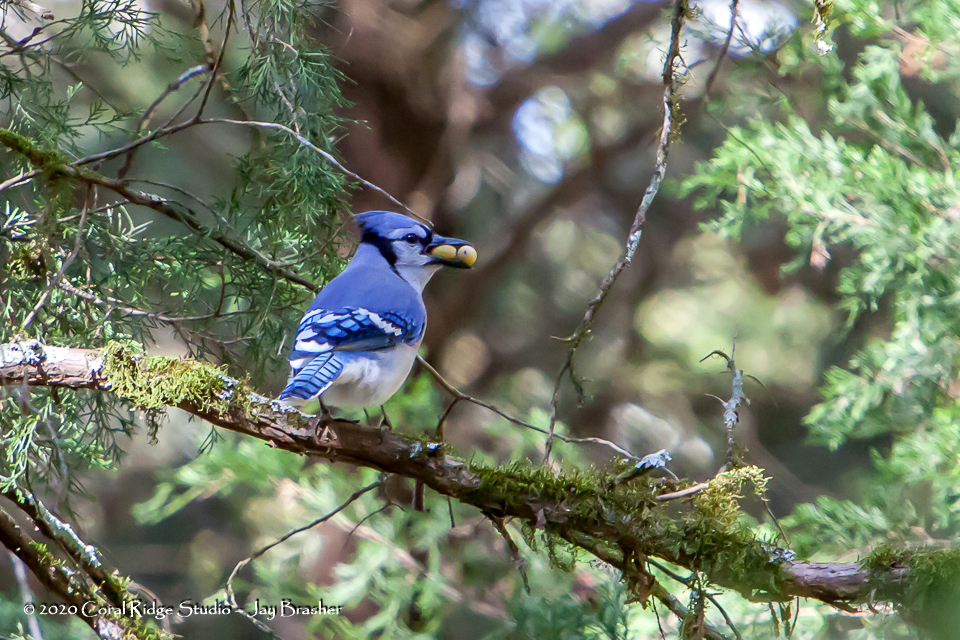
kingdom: Animalia
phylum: Chordata
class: Aves
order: Passeriformes
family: Corvidae
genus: Cyanocitta
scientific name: Cyanocitta cristata
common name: Blue jay
